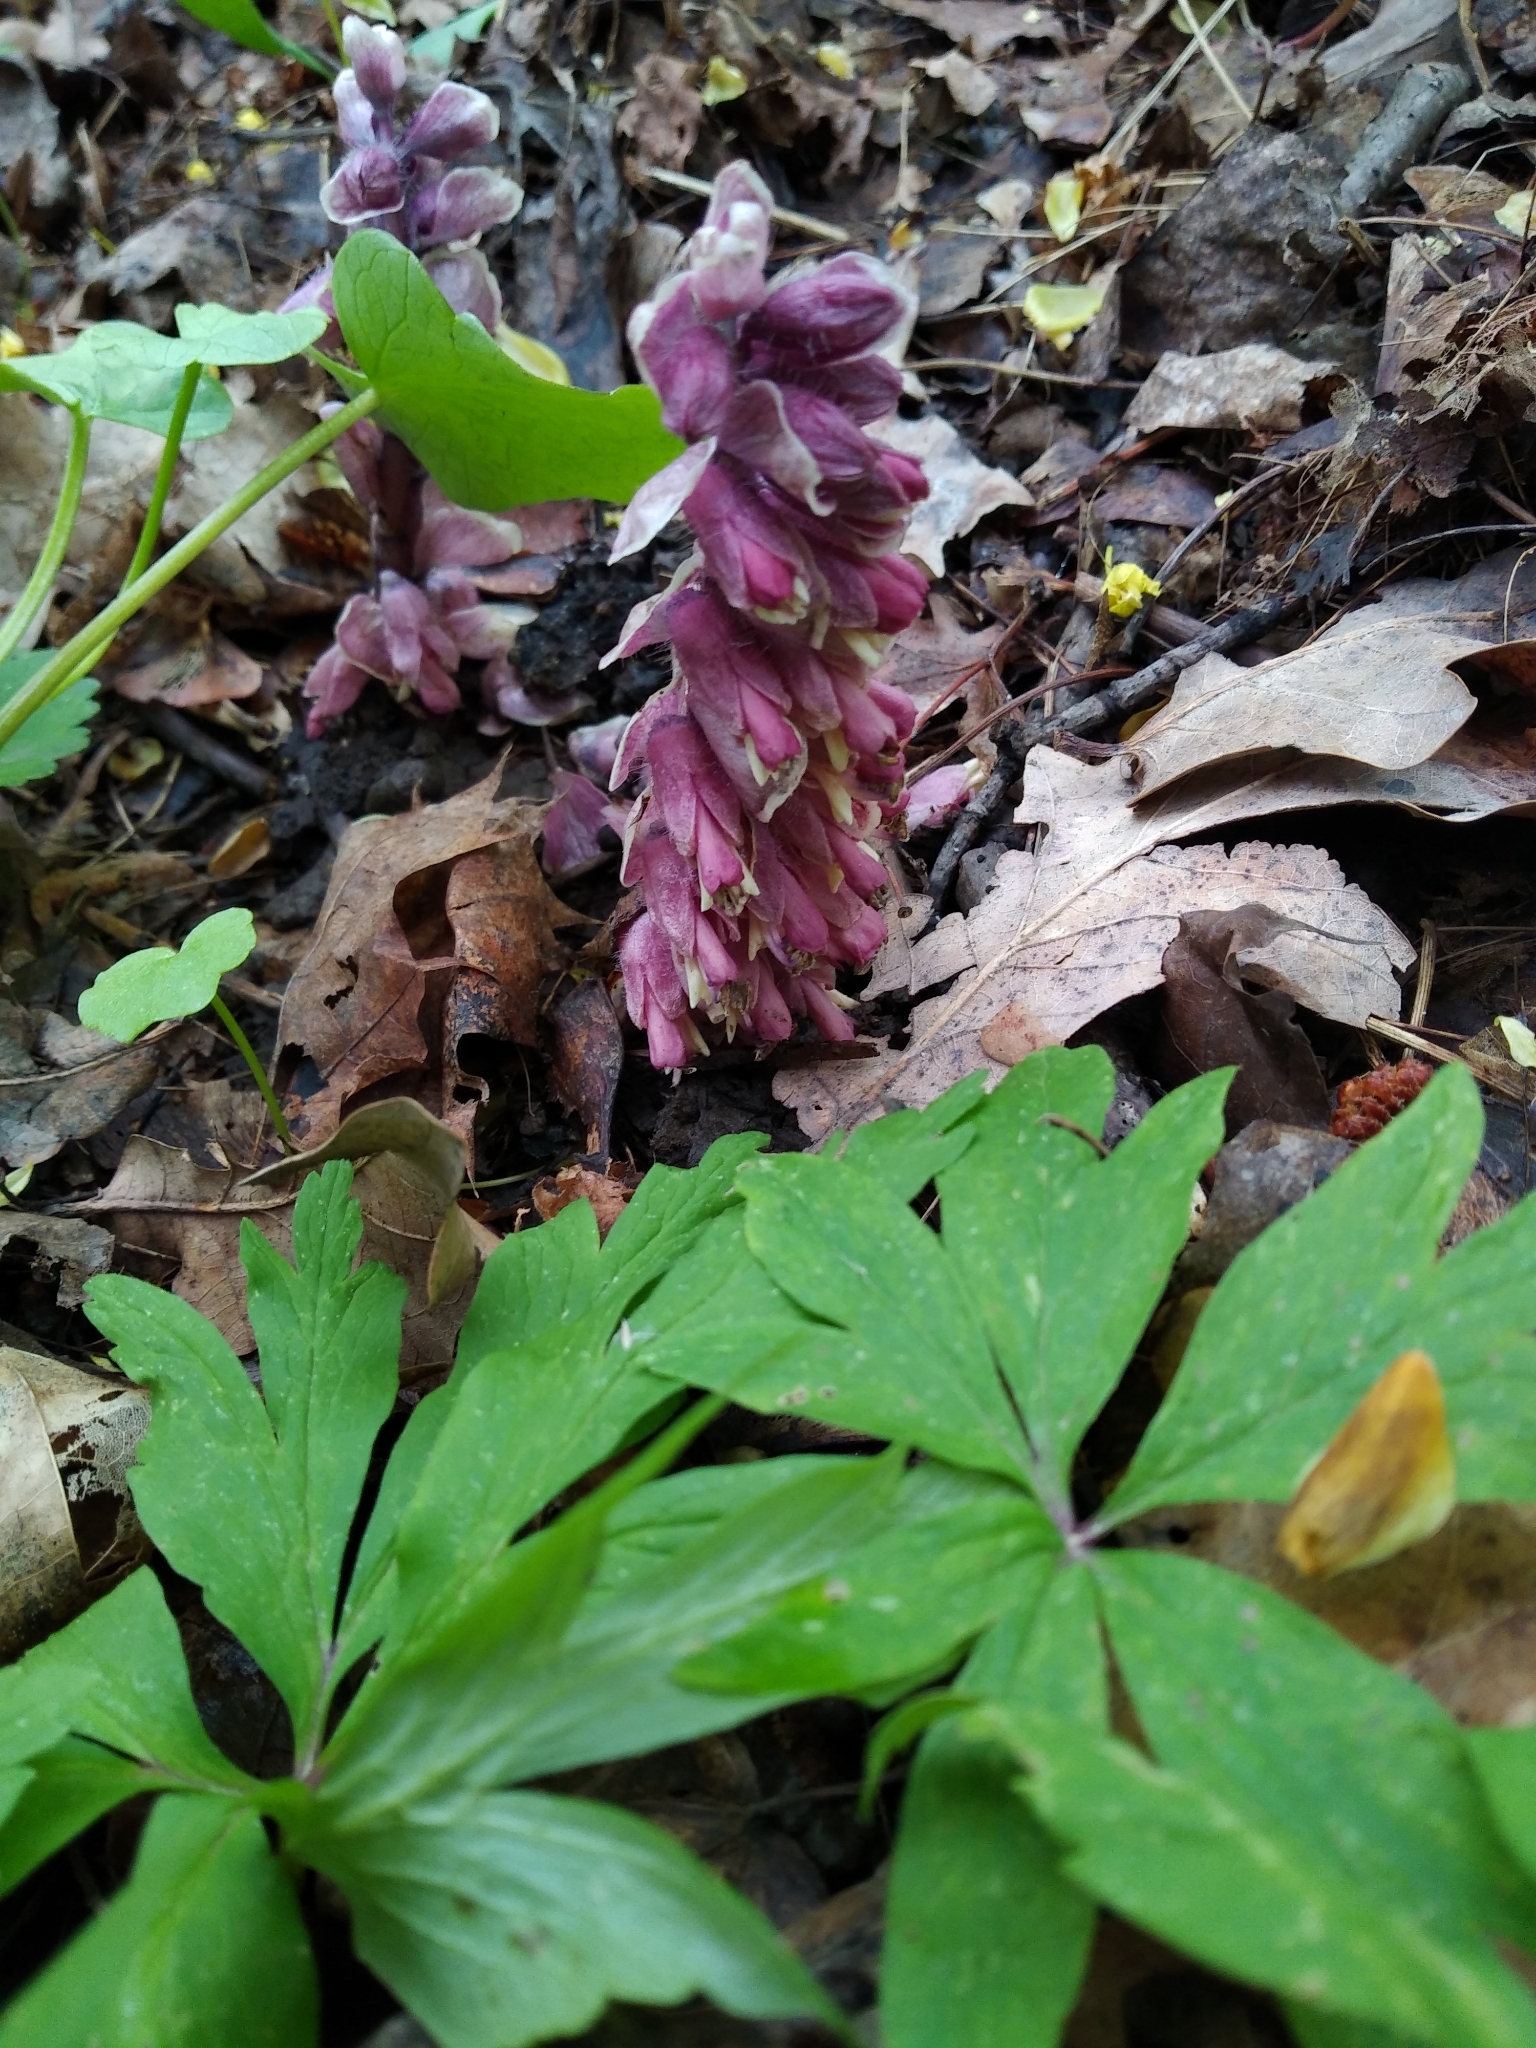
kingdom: Plantae
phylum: Tracheophyta
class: Magnoliopsida
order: Lamiales
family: Orobanchaceae
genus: Lathraea
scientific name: Lathraea squamaria
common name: Toothwort
